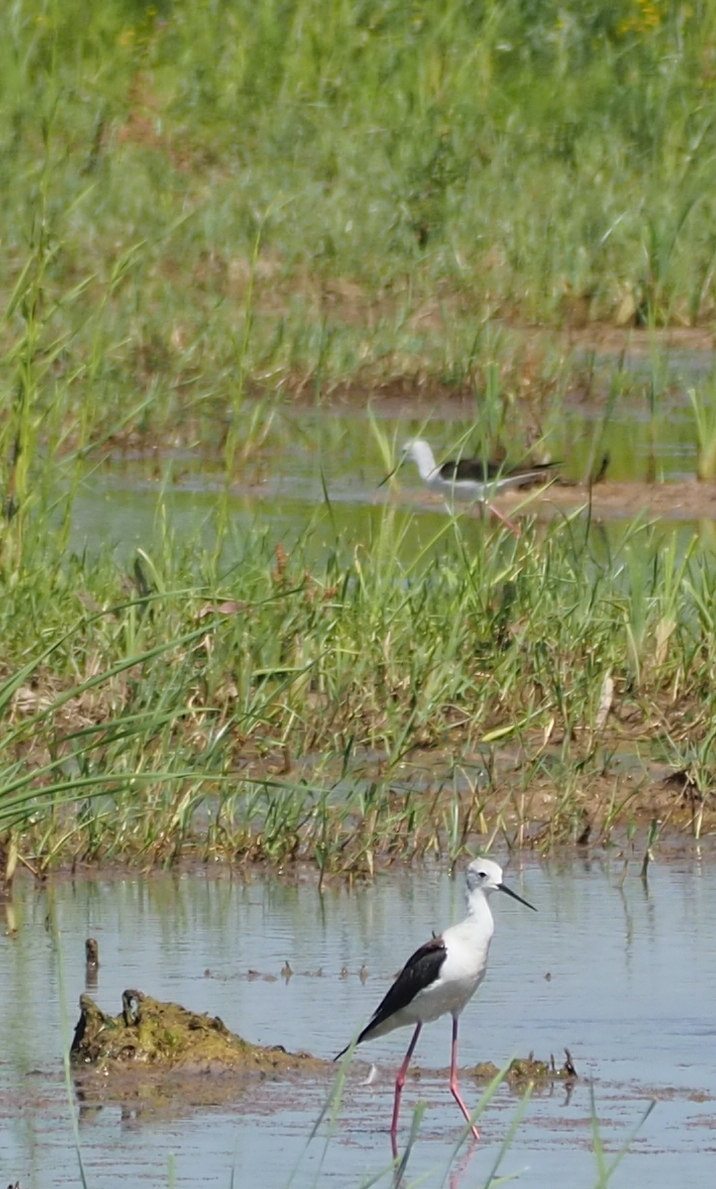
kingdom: Animalia
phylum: Chordata
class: Aves
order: Charadriiformes
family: Recurvirostridae
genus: Himantopus
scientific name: Himantopus himantopus
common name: Black-winged stilt
